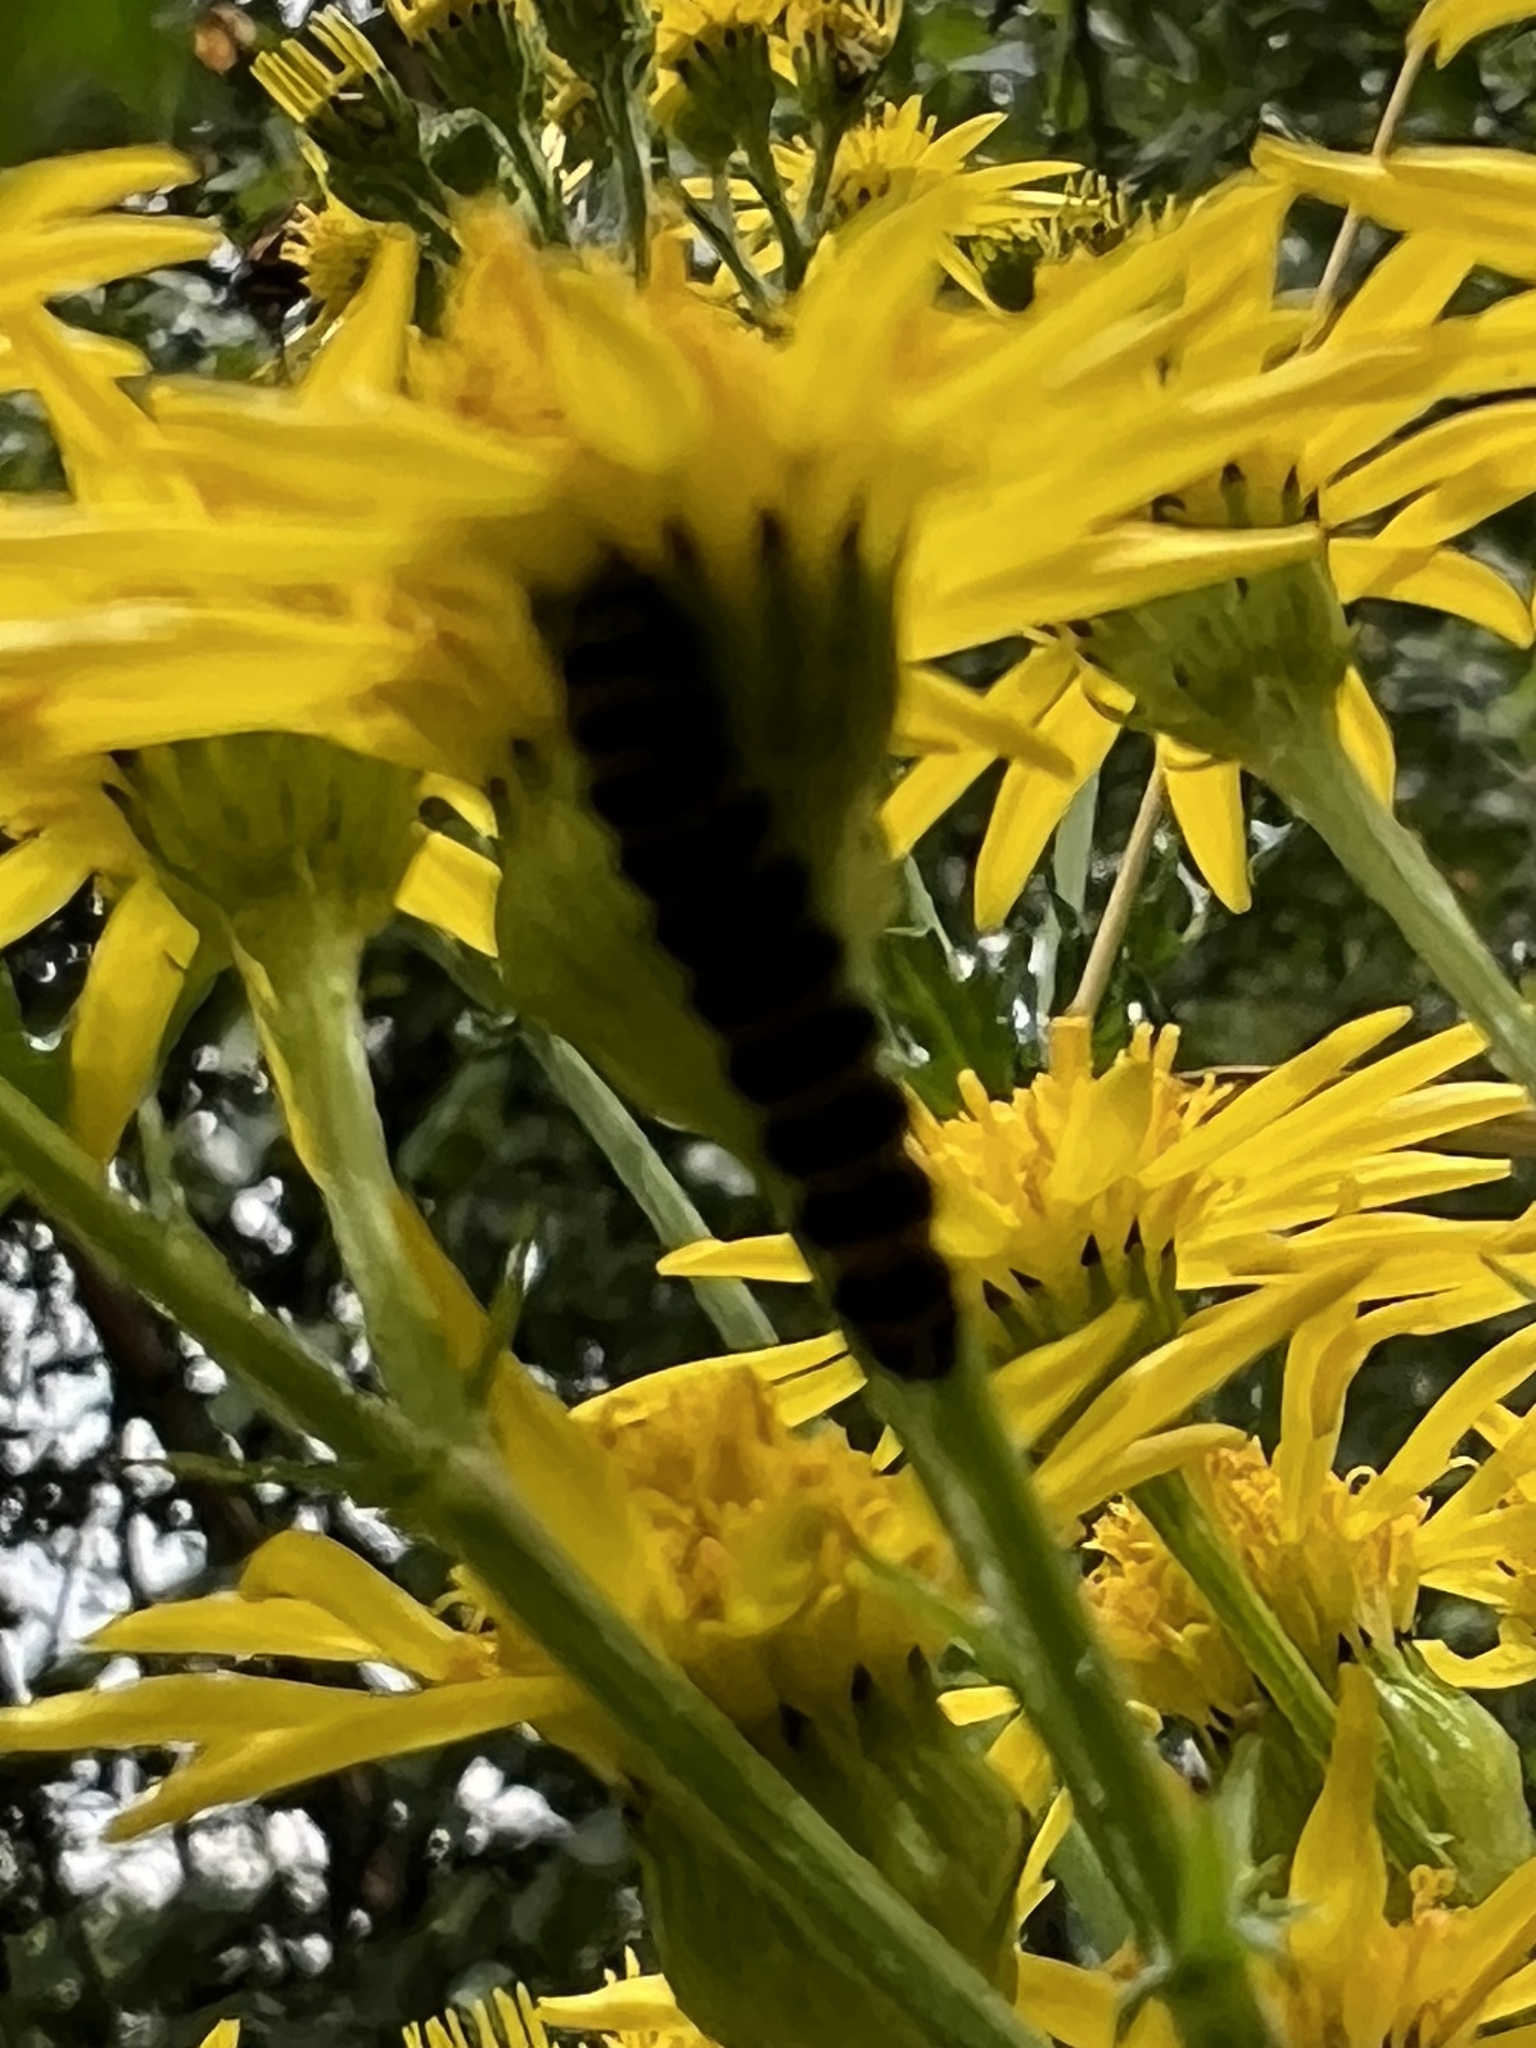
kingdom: Animalia
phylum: Arthropoda
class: Insecta
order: Lepidoptera
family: Erebidae
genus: Tyria
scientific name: Tyria jacobaeae
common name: Cinnabar
